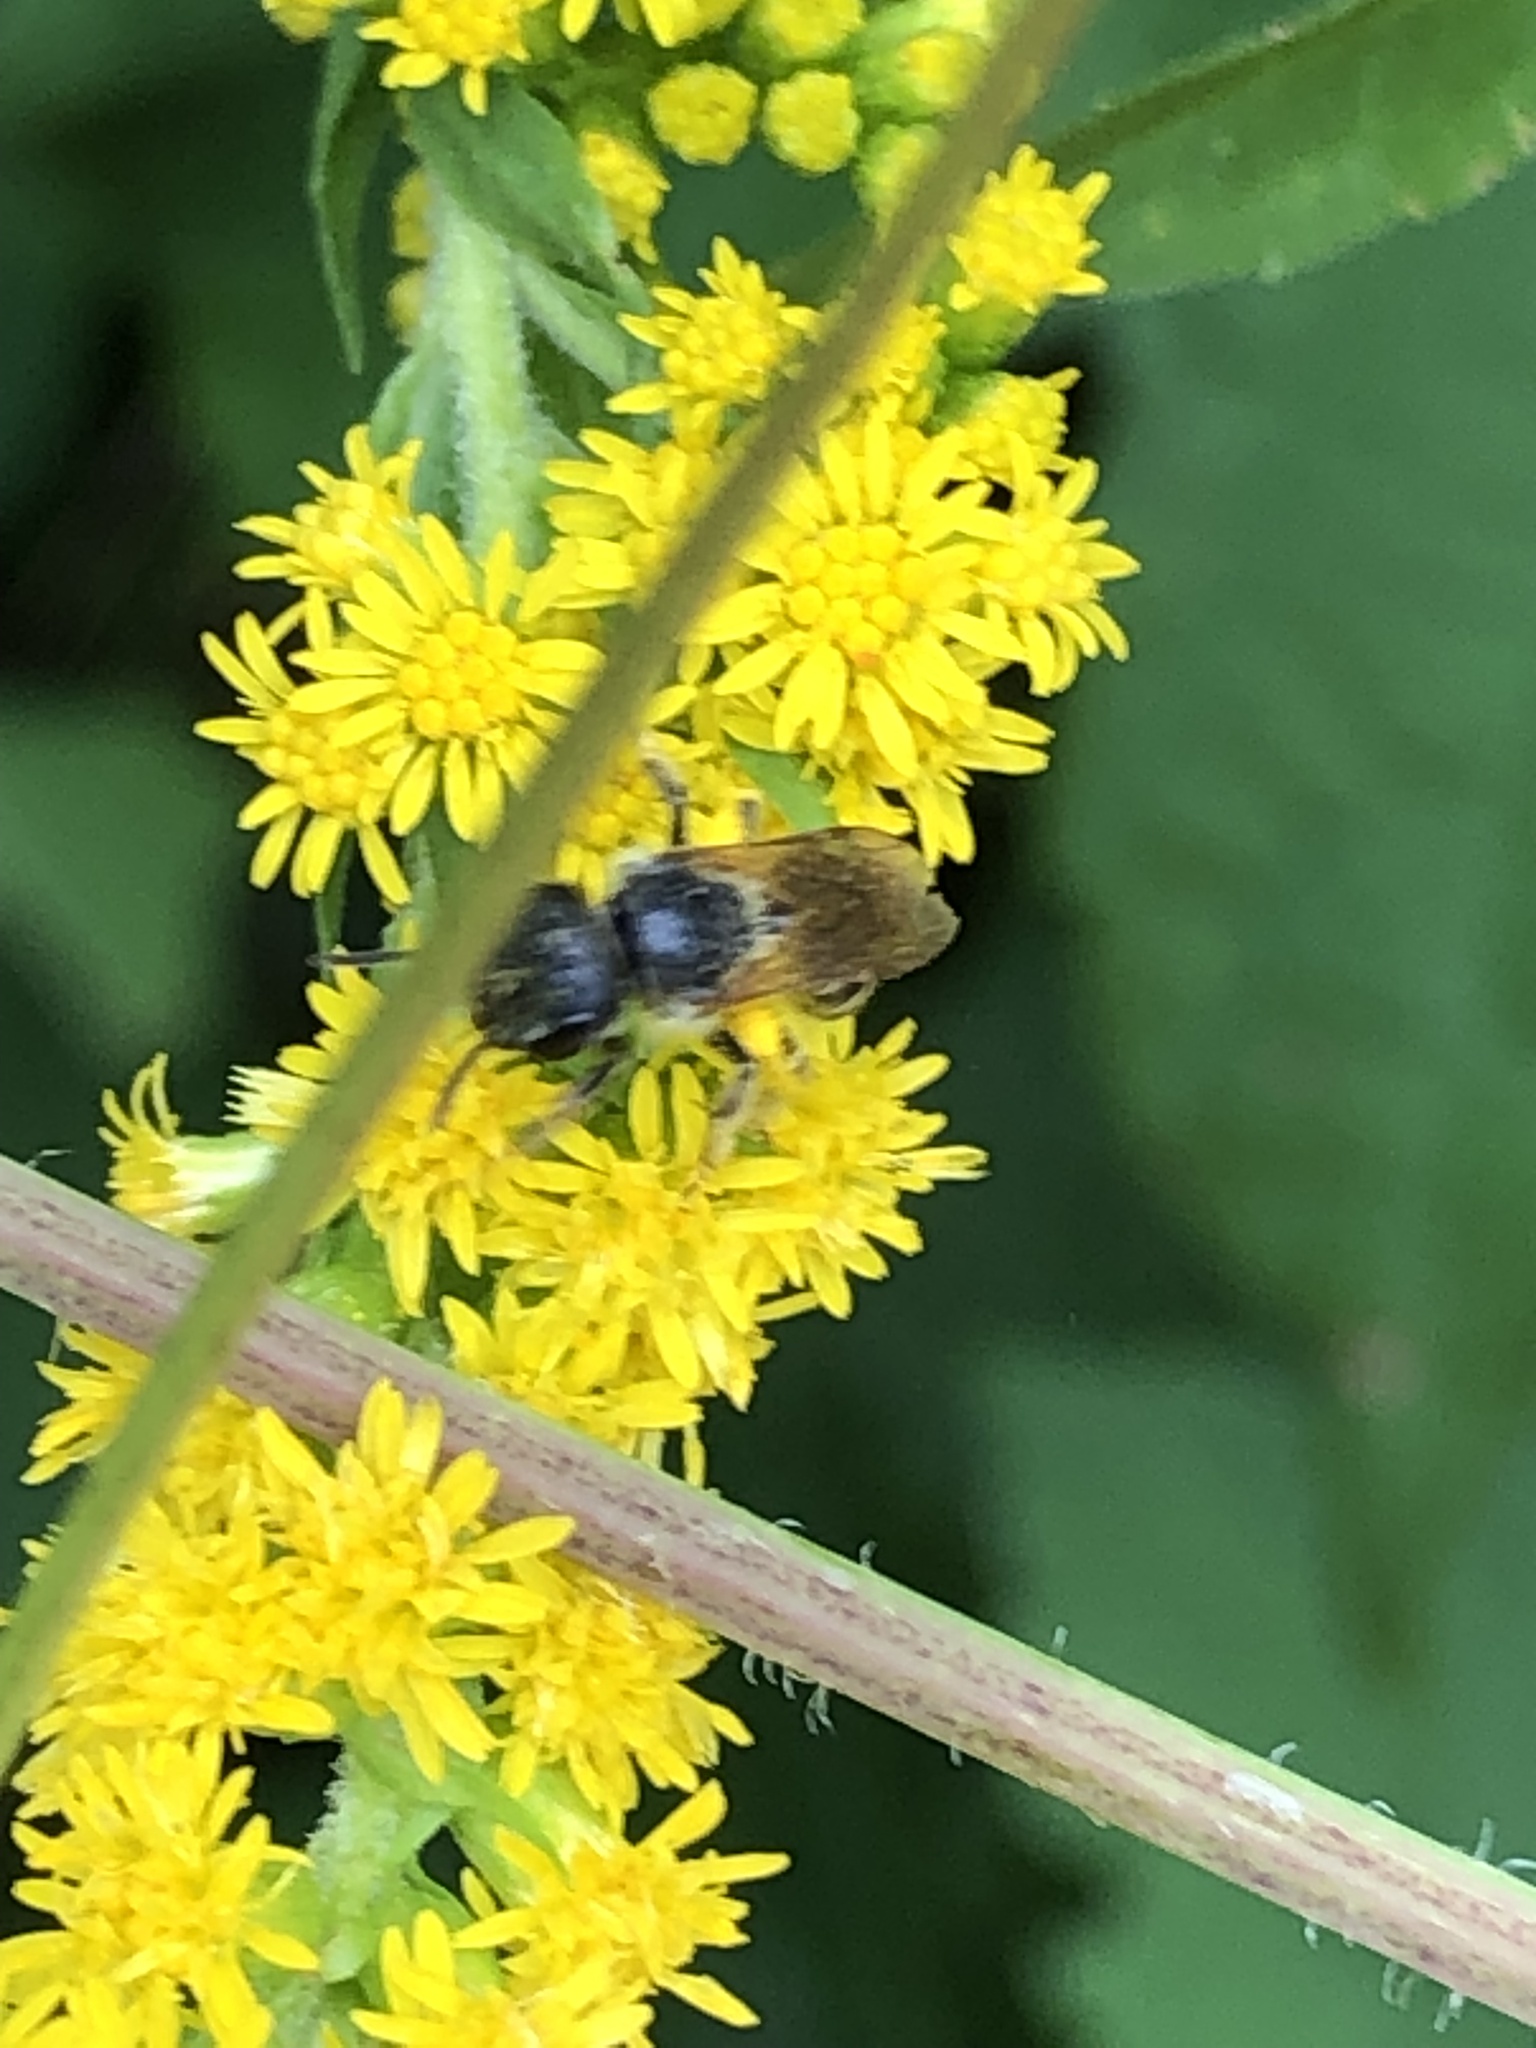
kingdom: Animalia
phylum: Arthropoda
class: Insecta
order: Hymenoptera
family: Halictidae
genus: Halictus
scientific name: Halictus ligatus
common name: Ligated furrow bee
